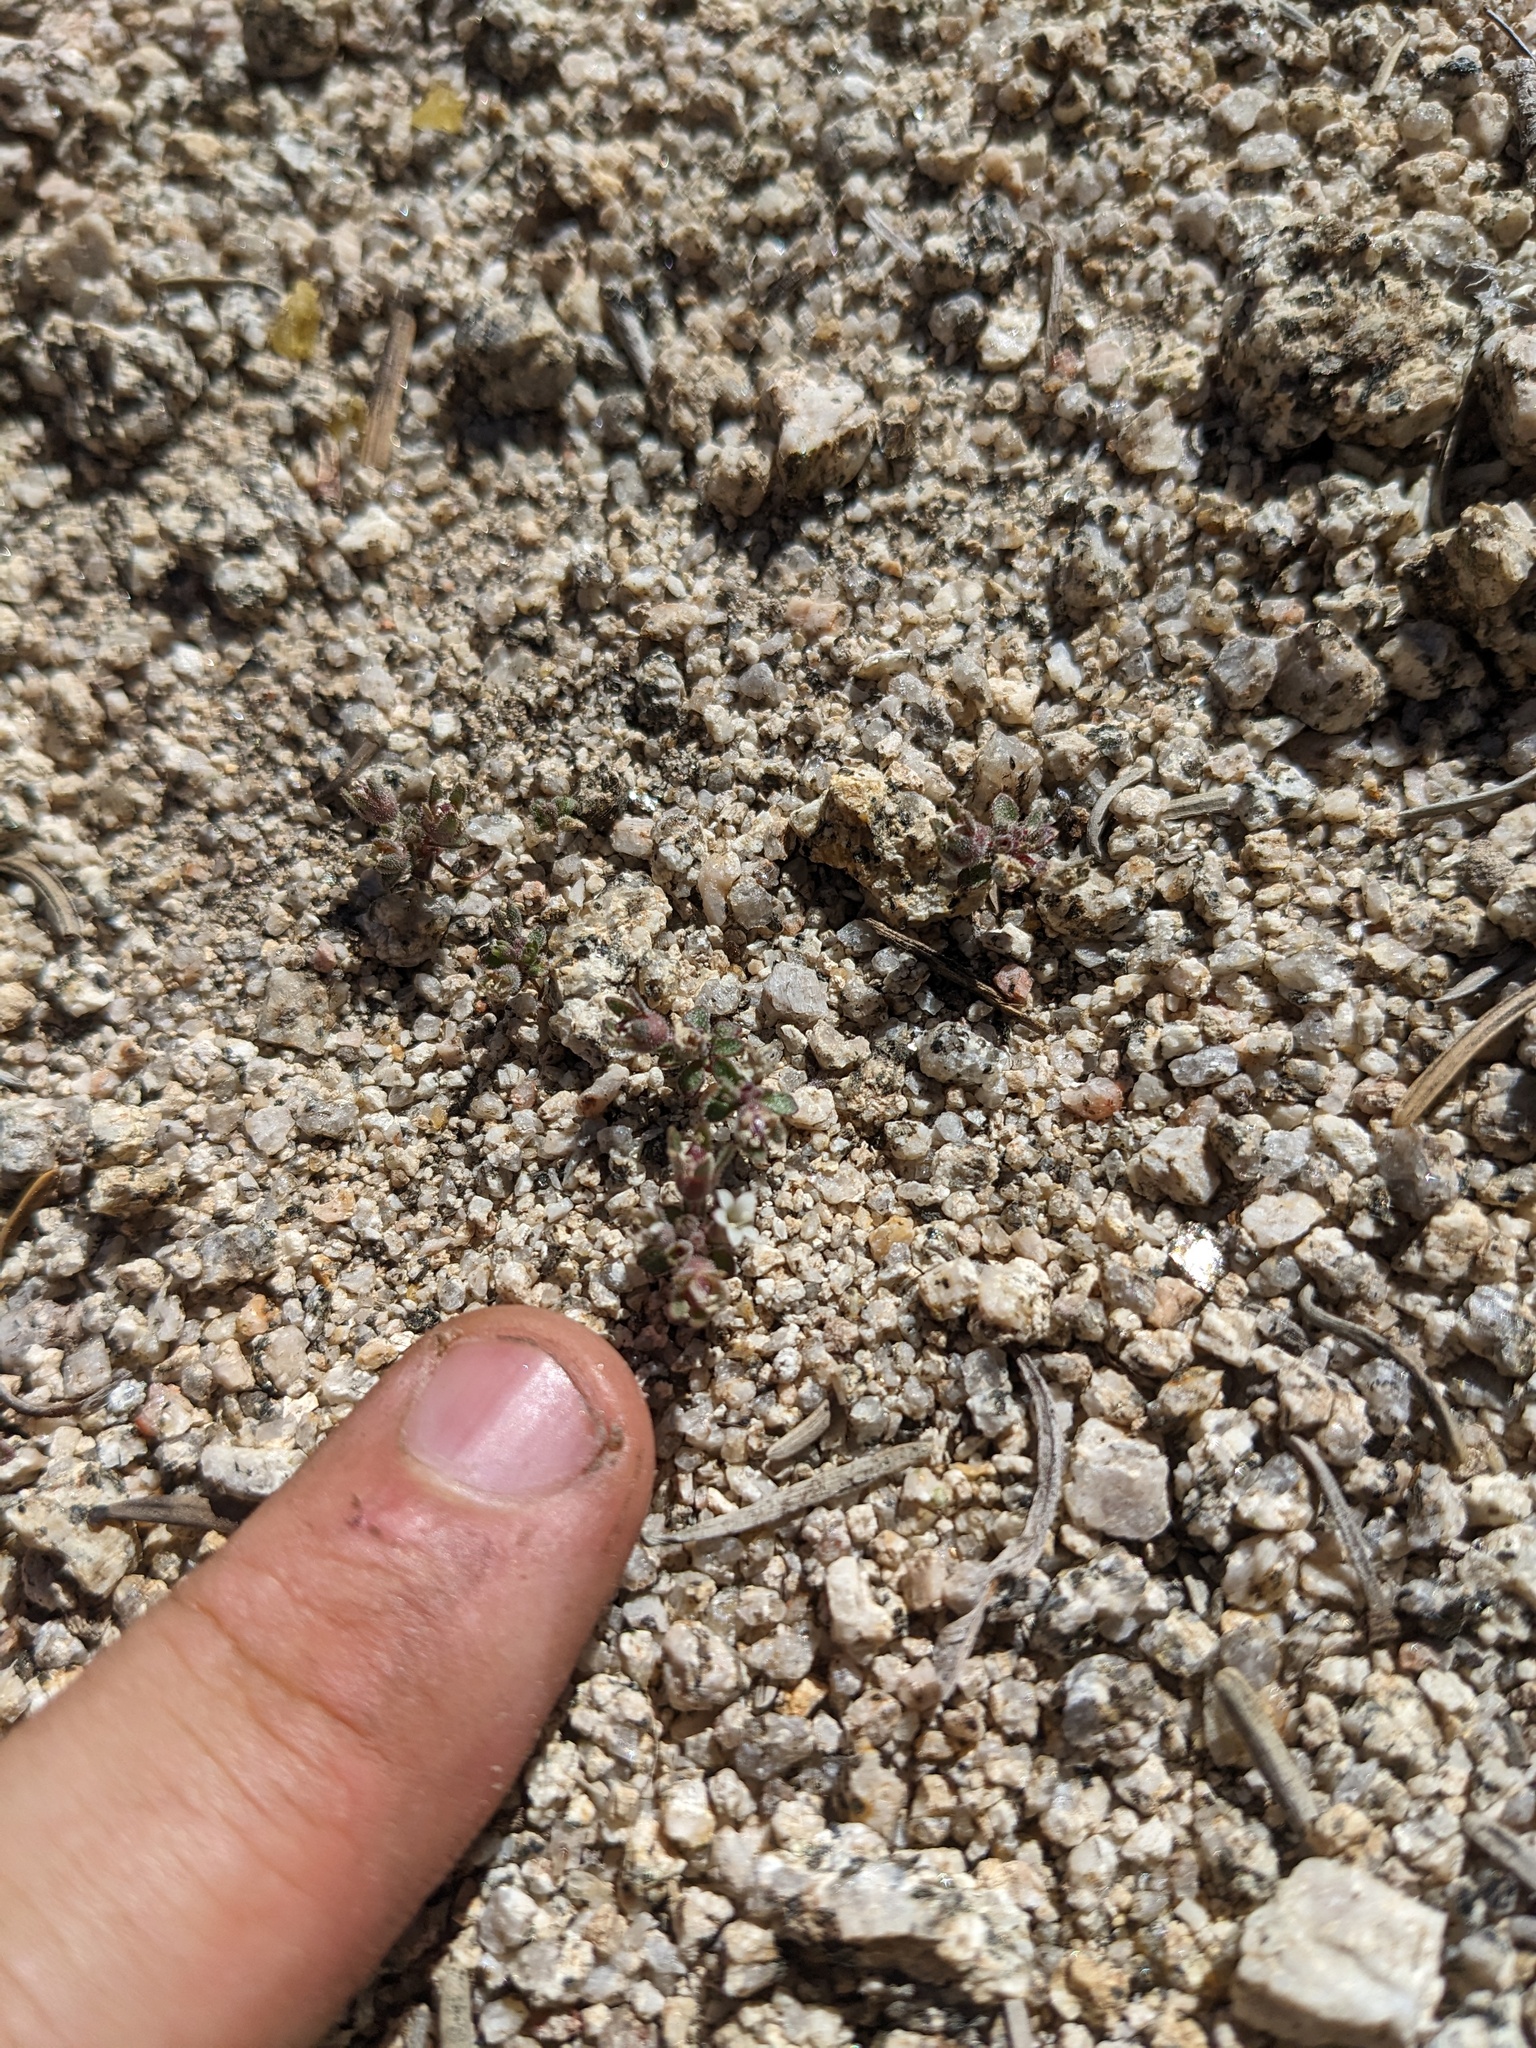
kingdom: Plantae
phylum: Tracheophyta
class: Magnoliopsida
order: Asterales
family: Campanulaceae
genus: Nemacladus
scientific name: Nemacladus twisselmannii
